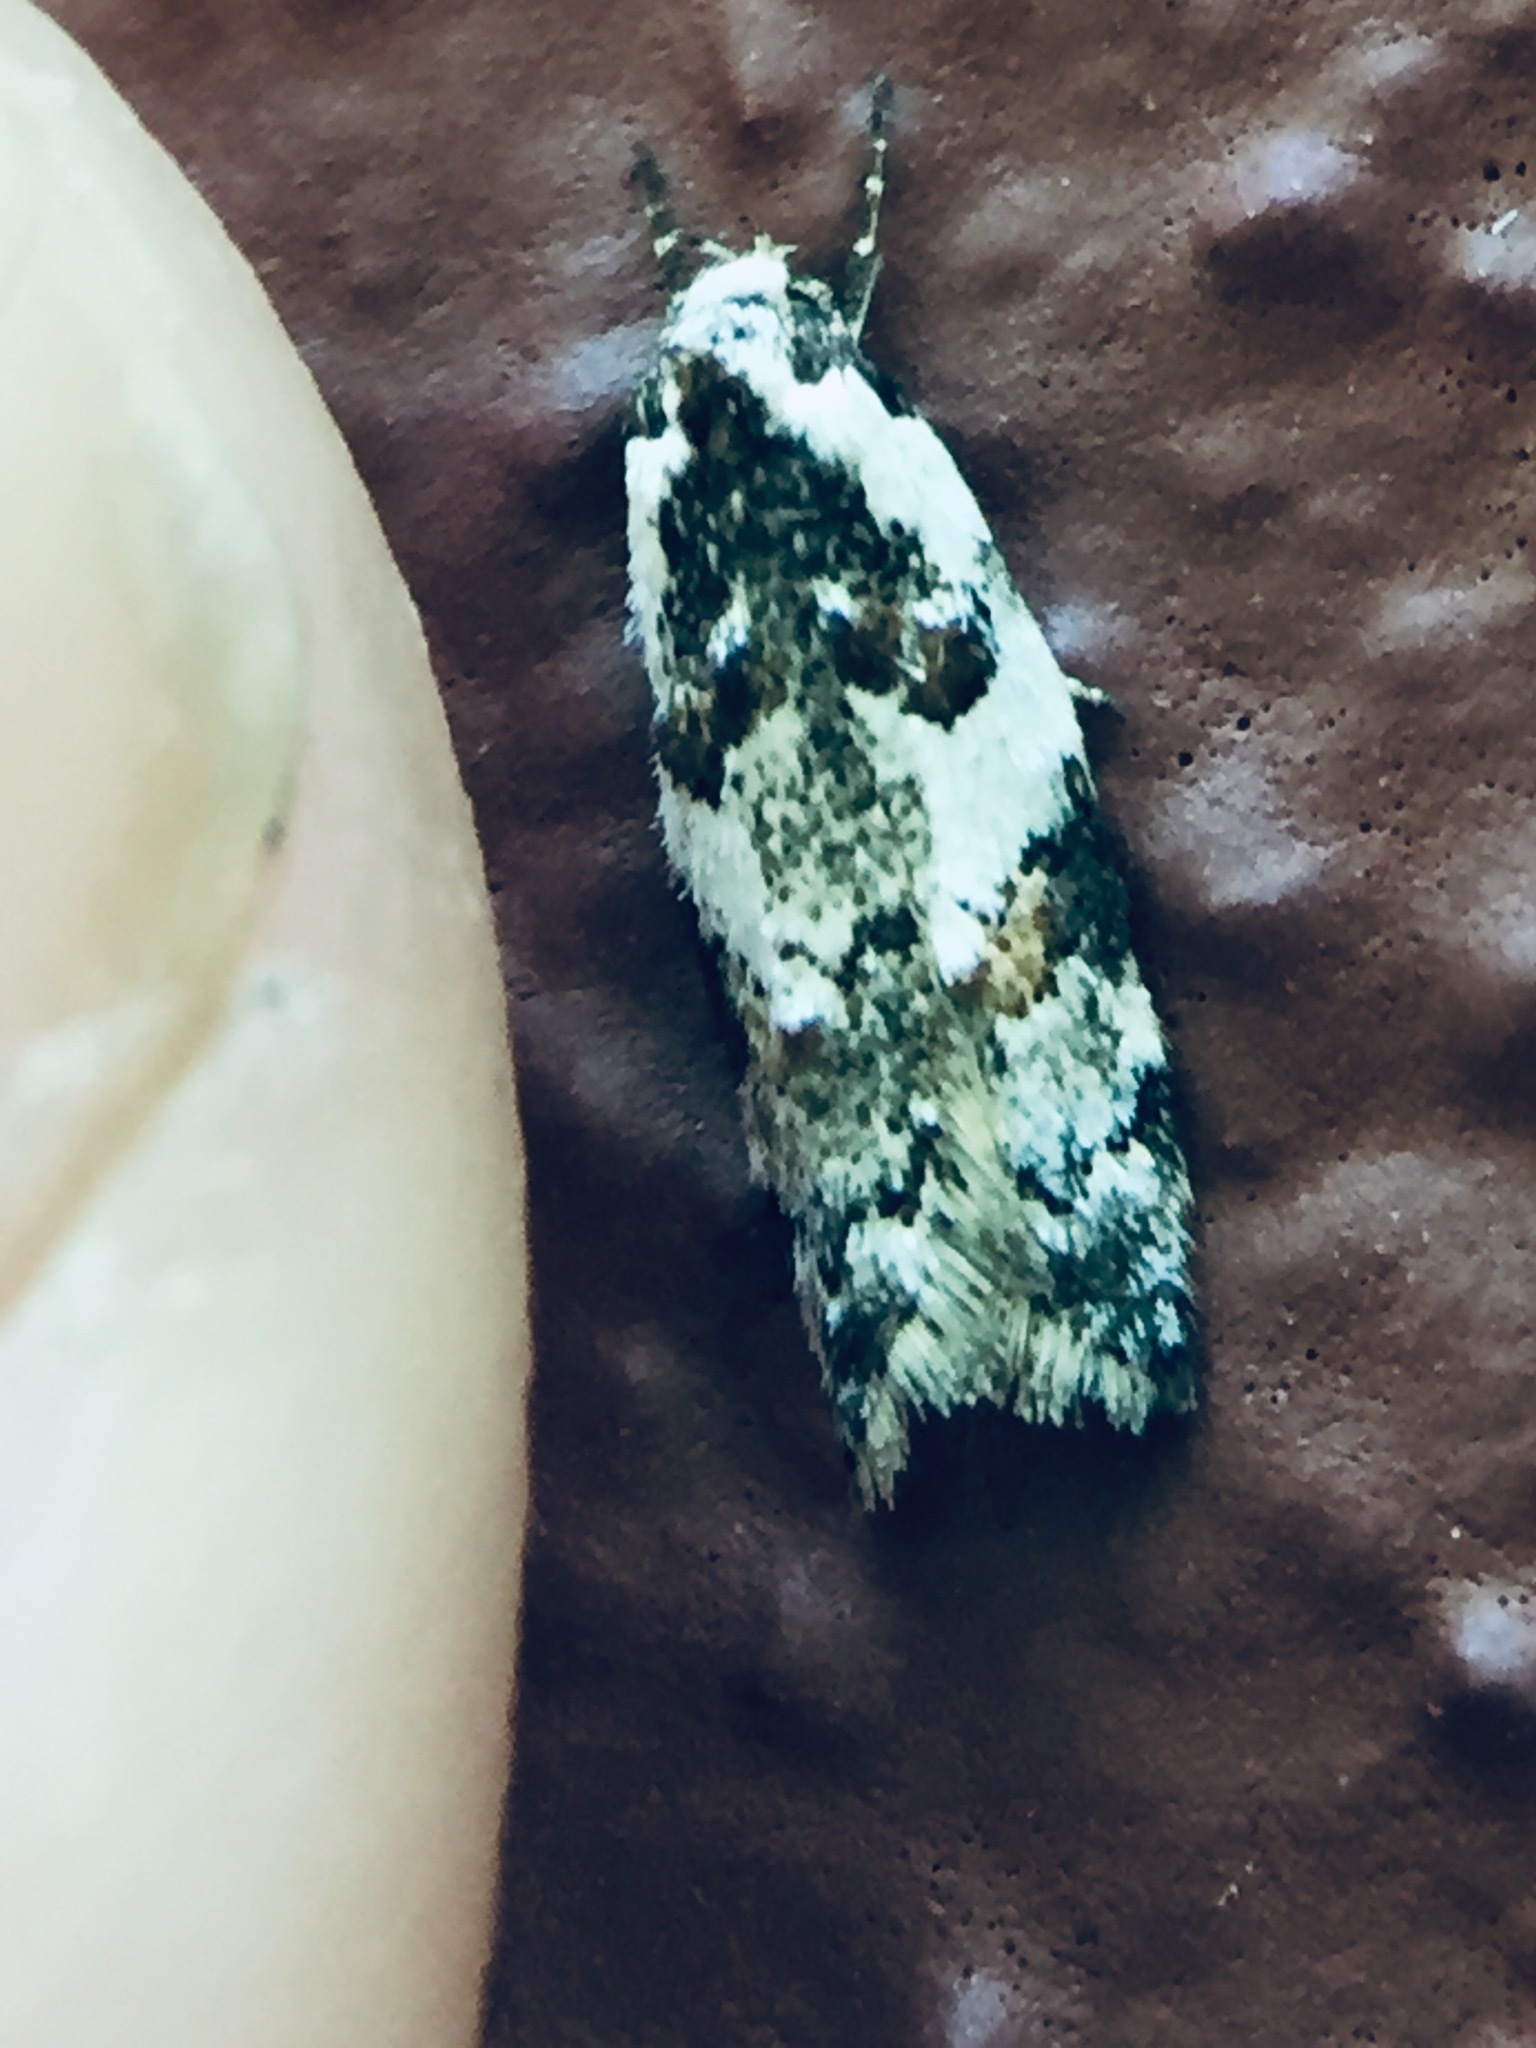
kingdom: Animalia
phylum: Arthropoda
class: Insecta
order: Lepidoptera
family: Oecophoridae
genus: Trachypepla
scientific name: Trachypepla galaxias
